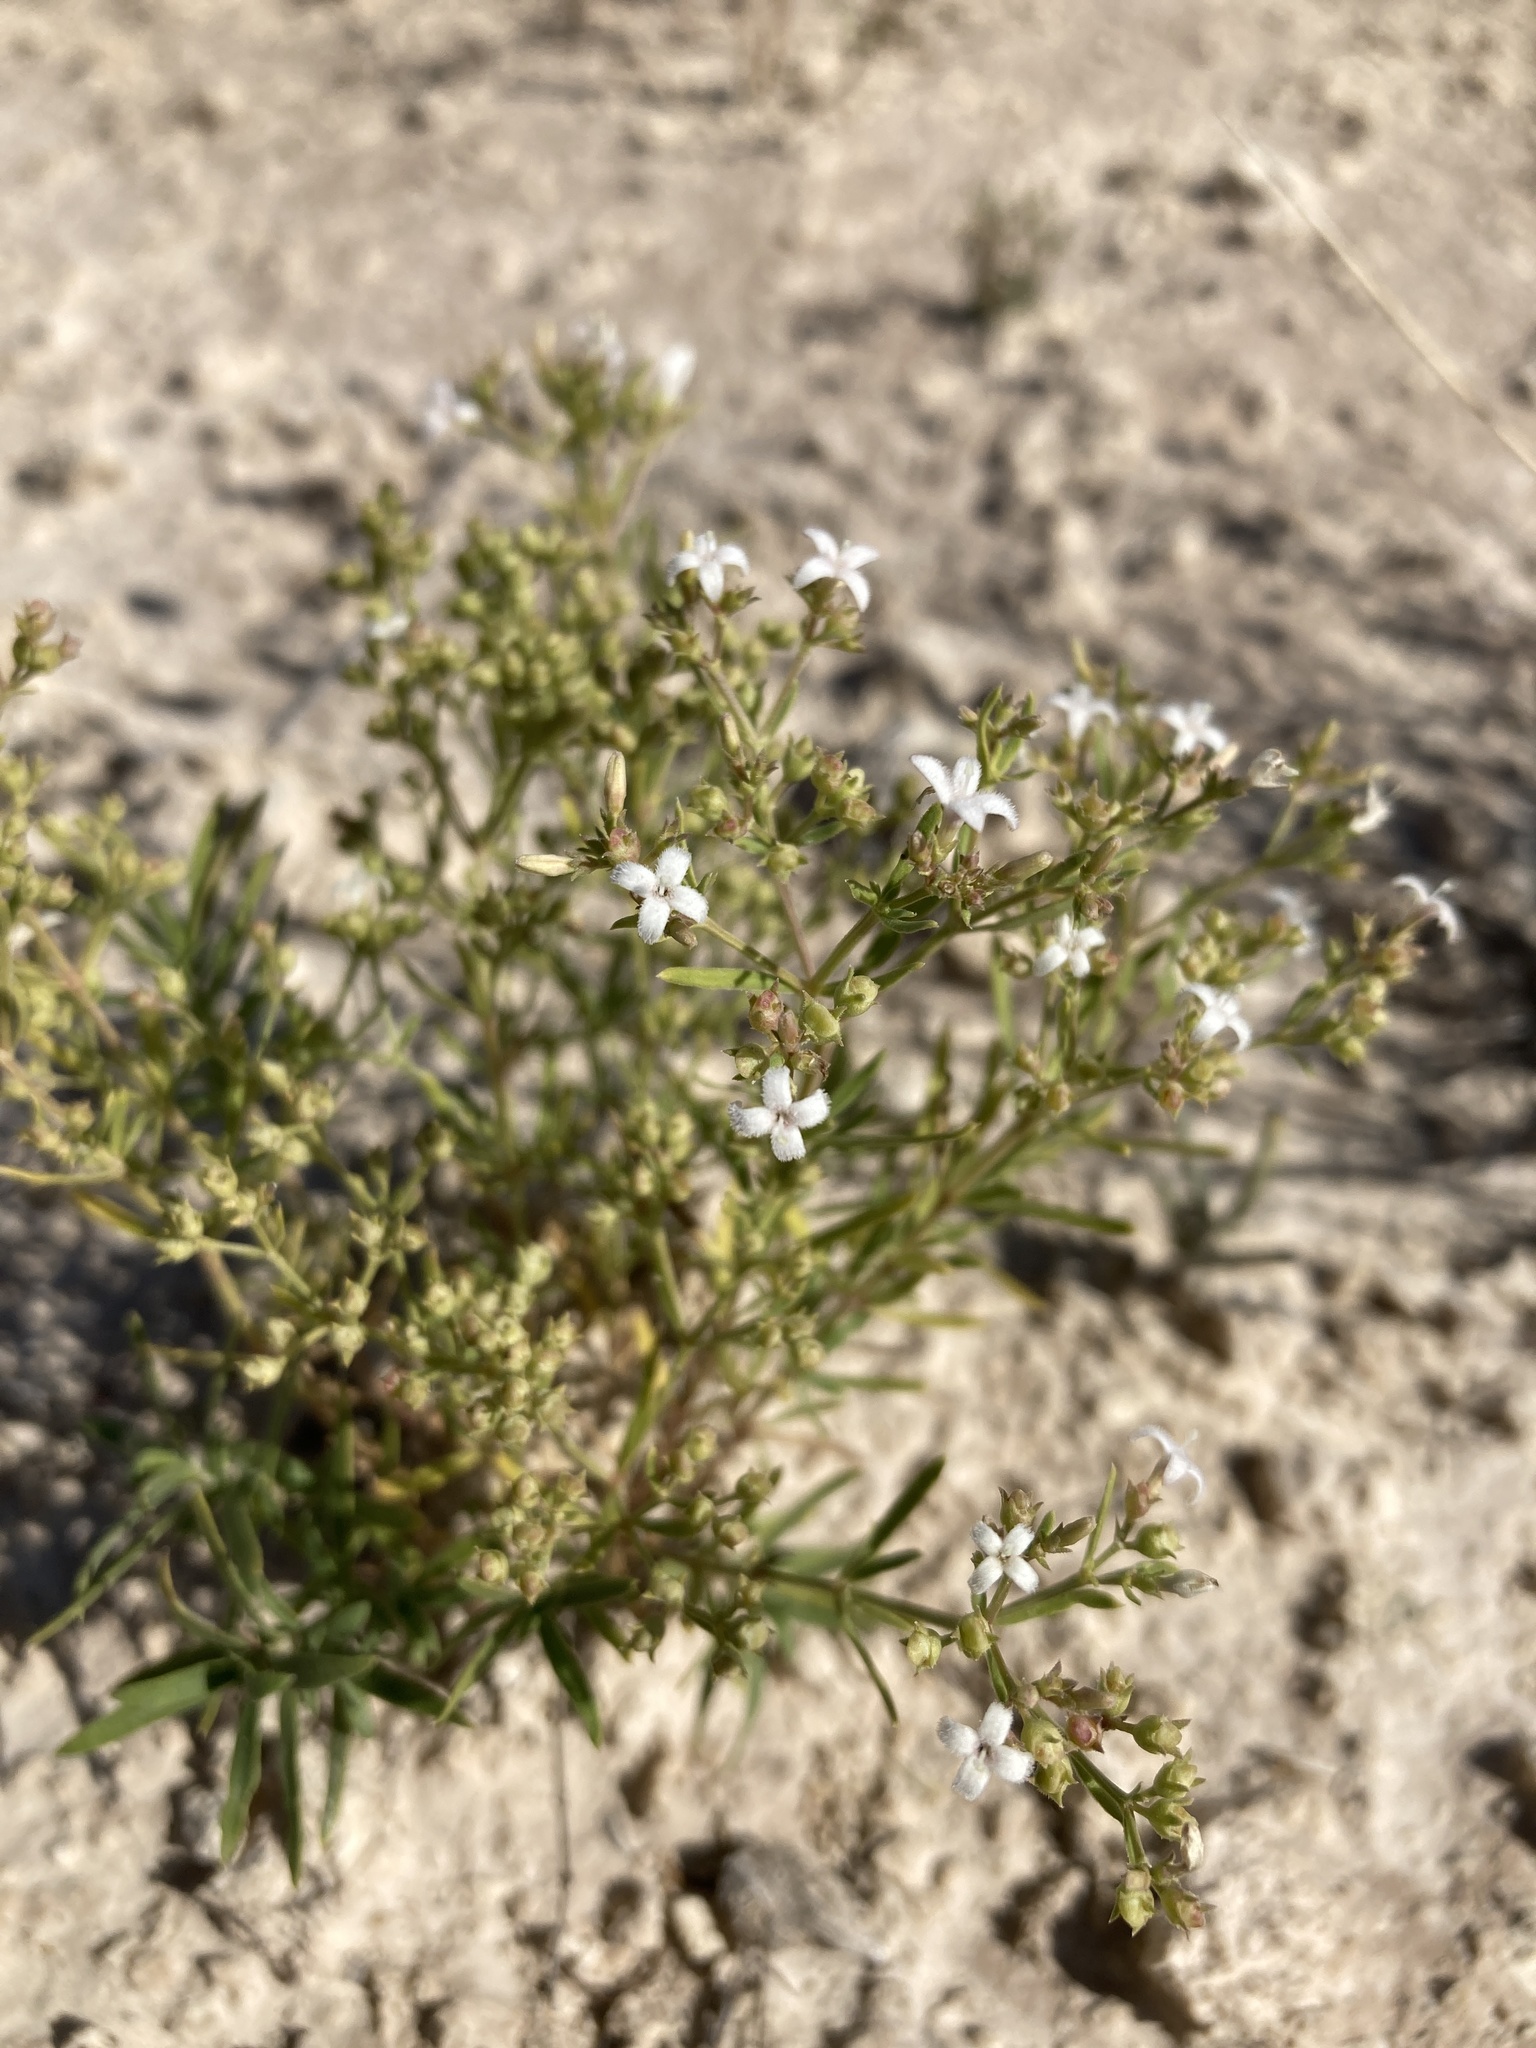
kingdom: Plantae
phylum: Tracheophyta
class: Magnoliopsida
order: Gentianales
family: Rubiaceae
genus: Stenaria
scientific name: Stenaria nigricans
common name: Diamondflowers
